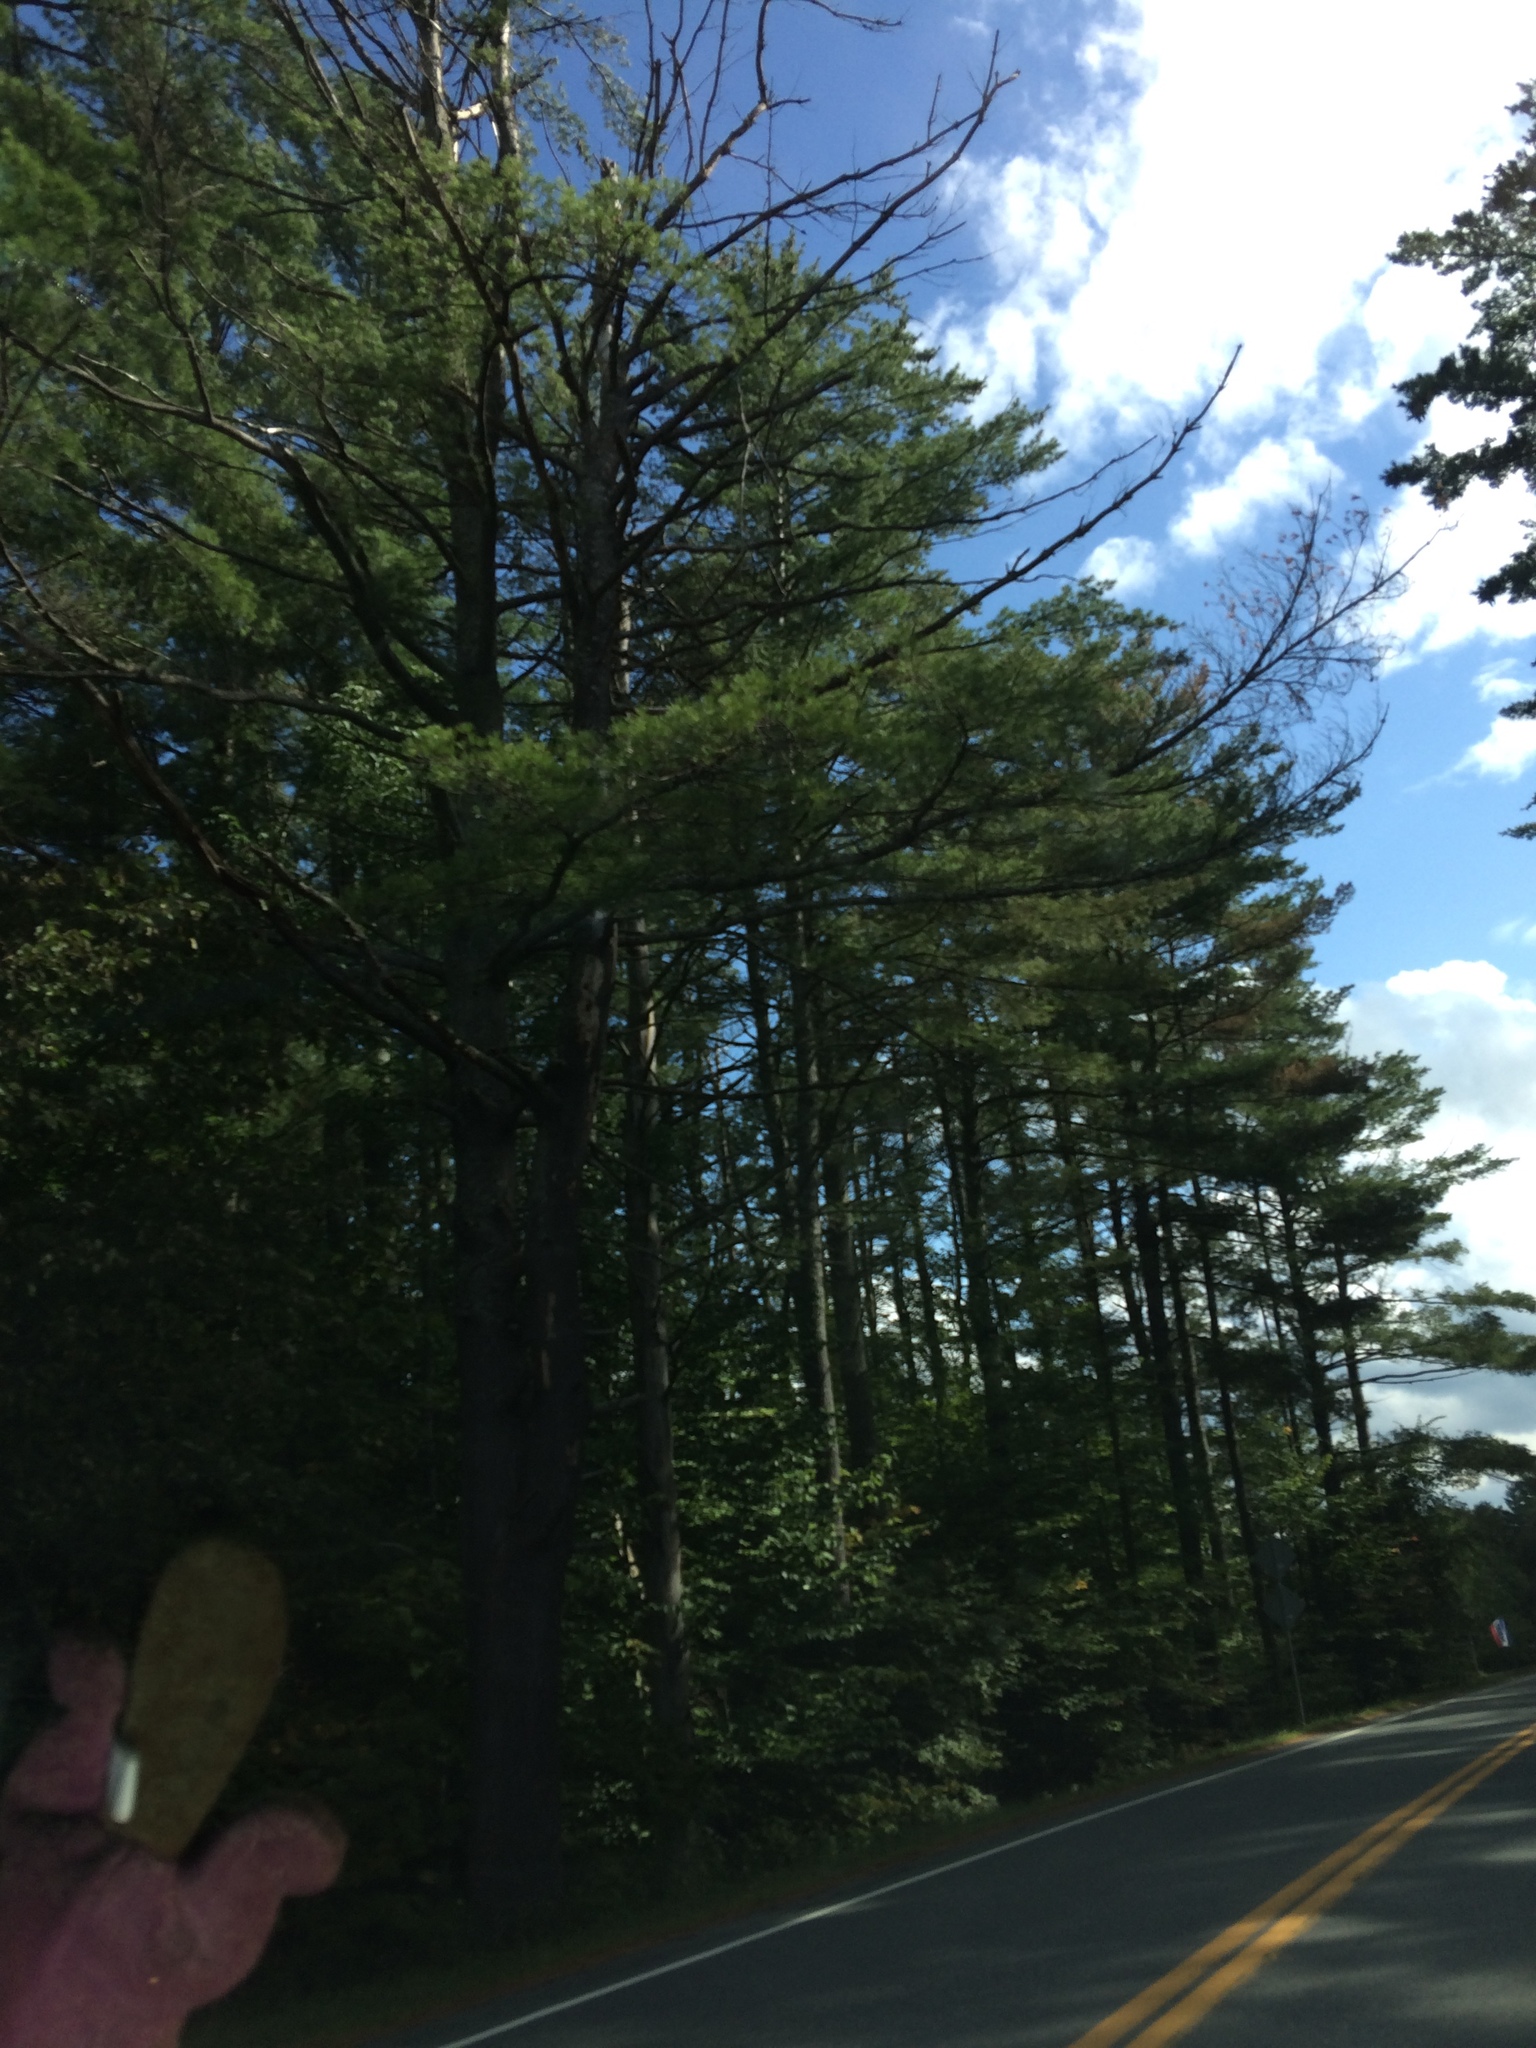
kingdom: Plantae
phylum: Tracheophyta
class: Pinopsida
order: Pinales
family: Pinaceae
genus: Pinus
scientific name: Pinus strobus
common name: Weymouth pine
